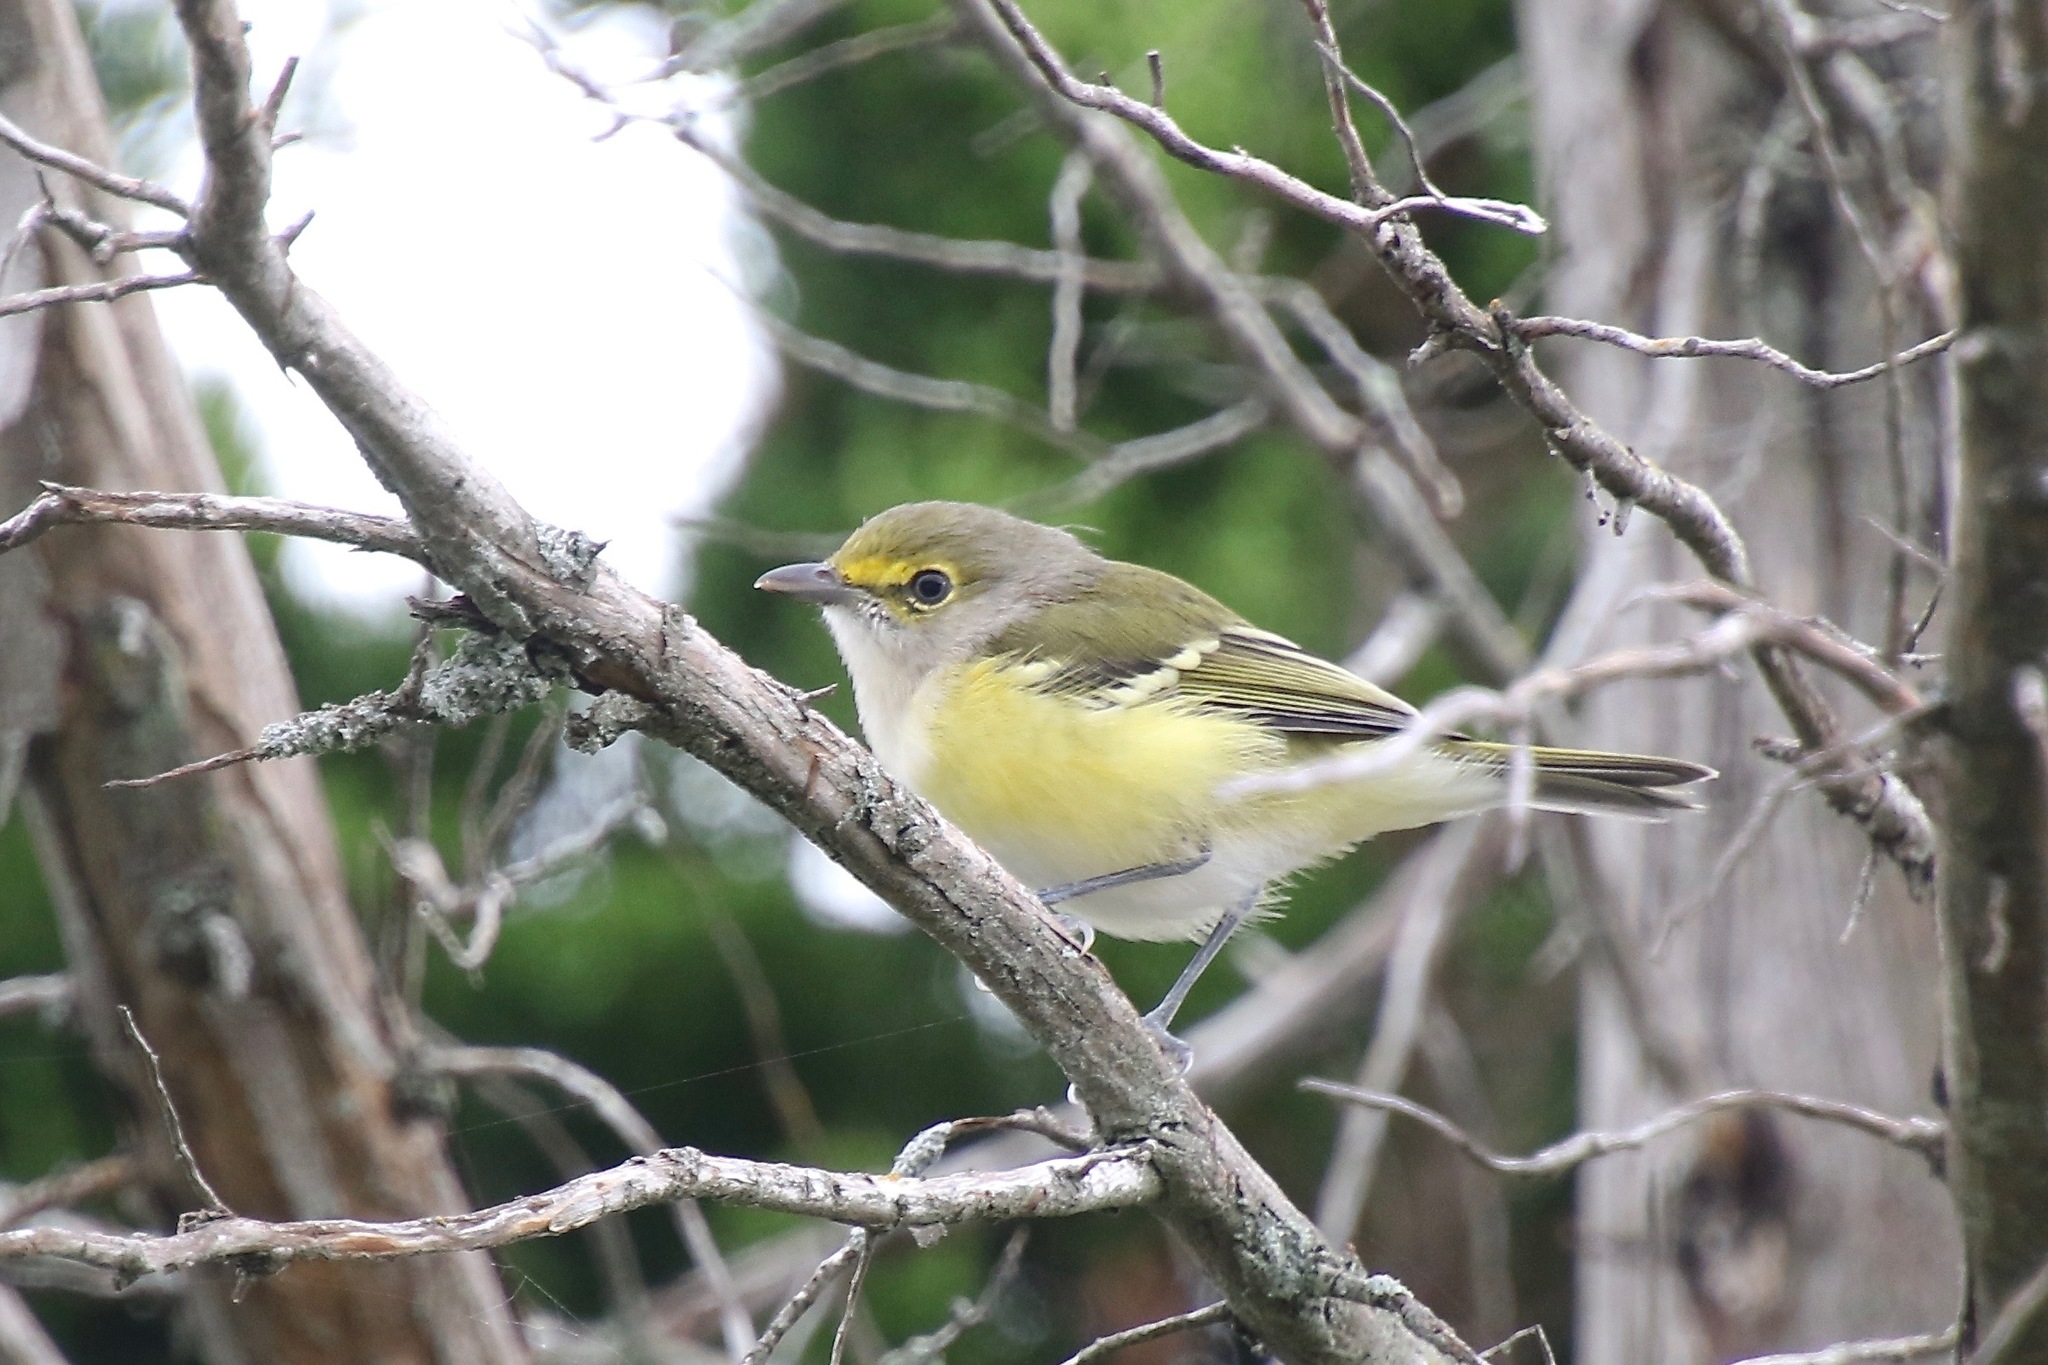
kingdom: Animalia
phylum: Chordata
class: Aves
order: Passeriformes
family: Vireonidae
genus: Vireo
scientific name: Vireo griseus
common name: White-eyed vireo
